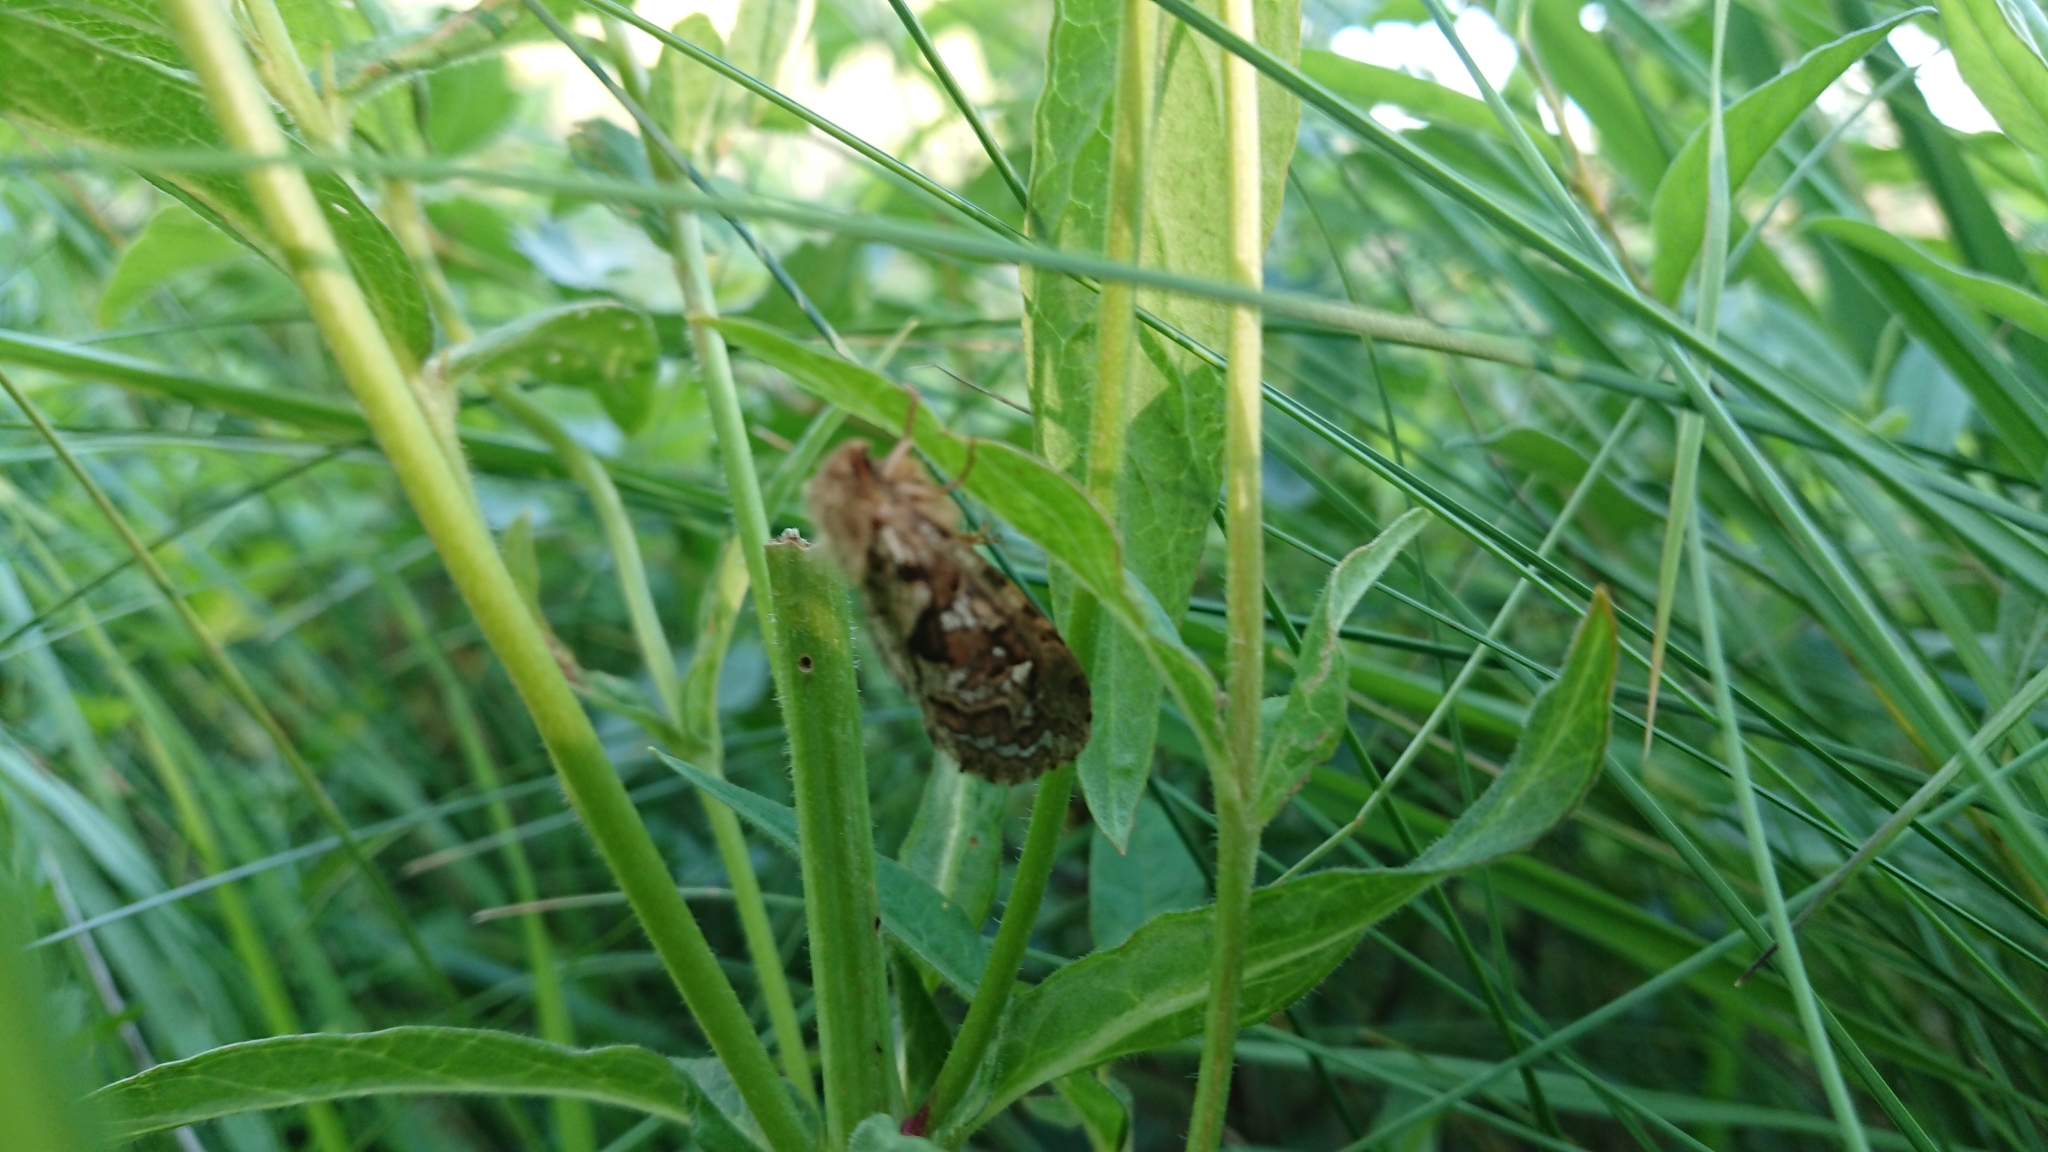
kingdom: Animalia
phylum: Arthropoda
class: Insecta
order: Lepidoptera
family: Hepialidae
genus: Korscheltellus
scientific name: Korscheltellus fusconebulosus
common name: Map-winged swift
